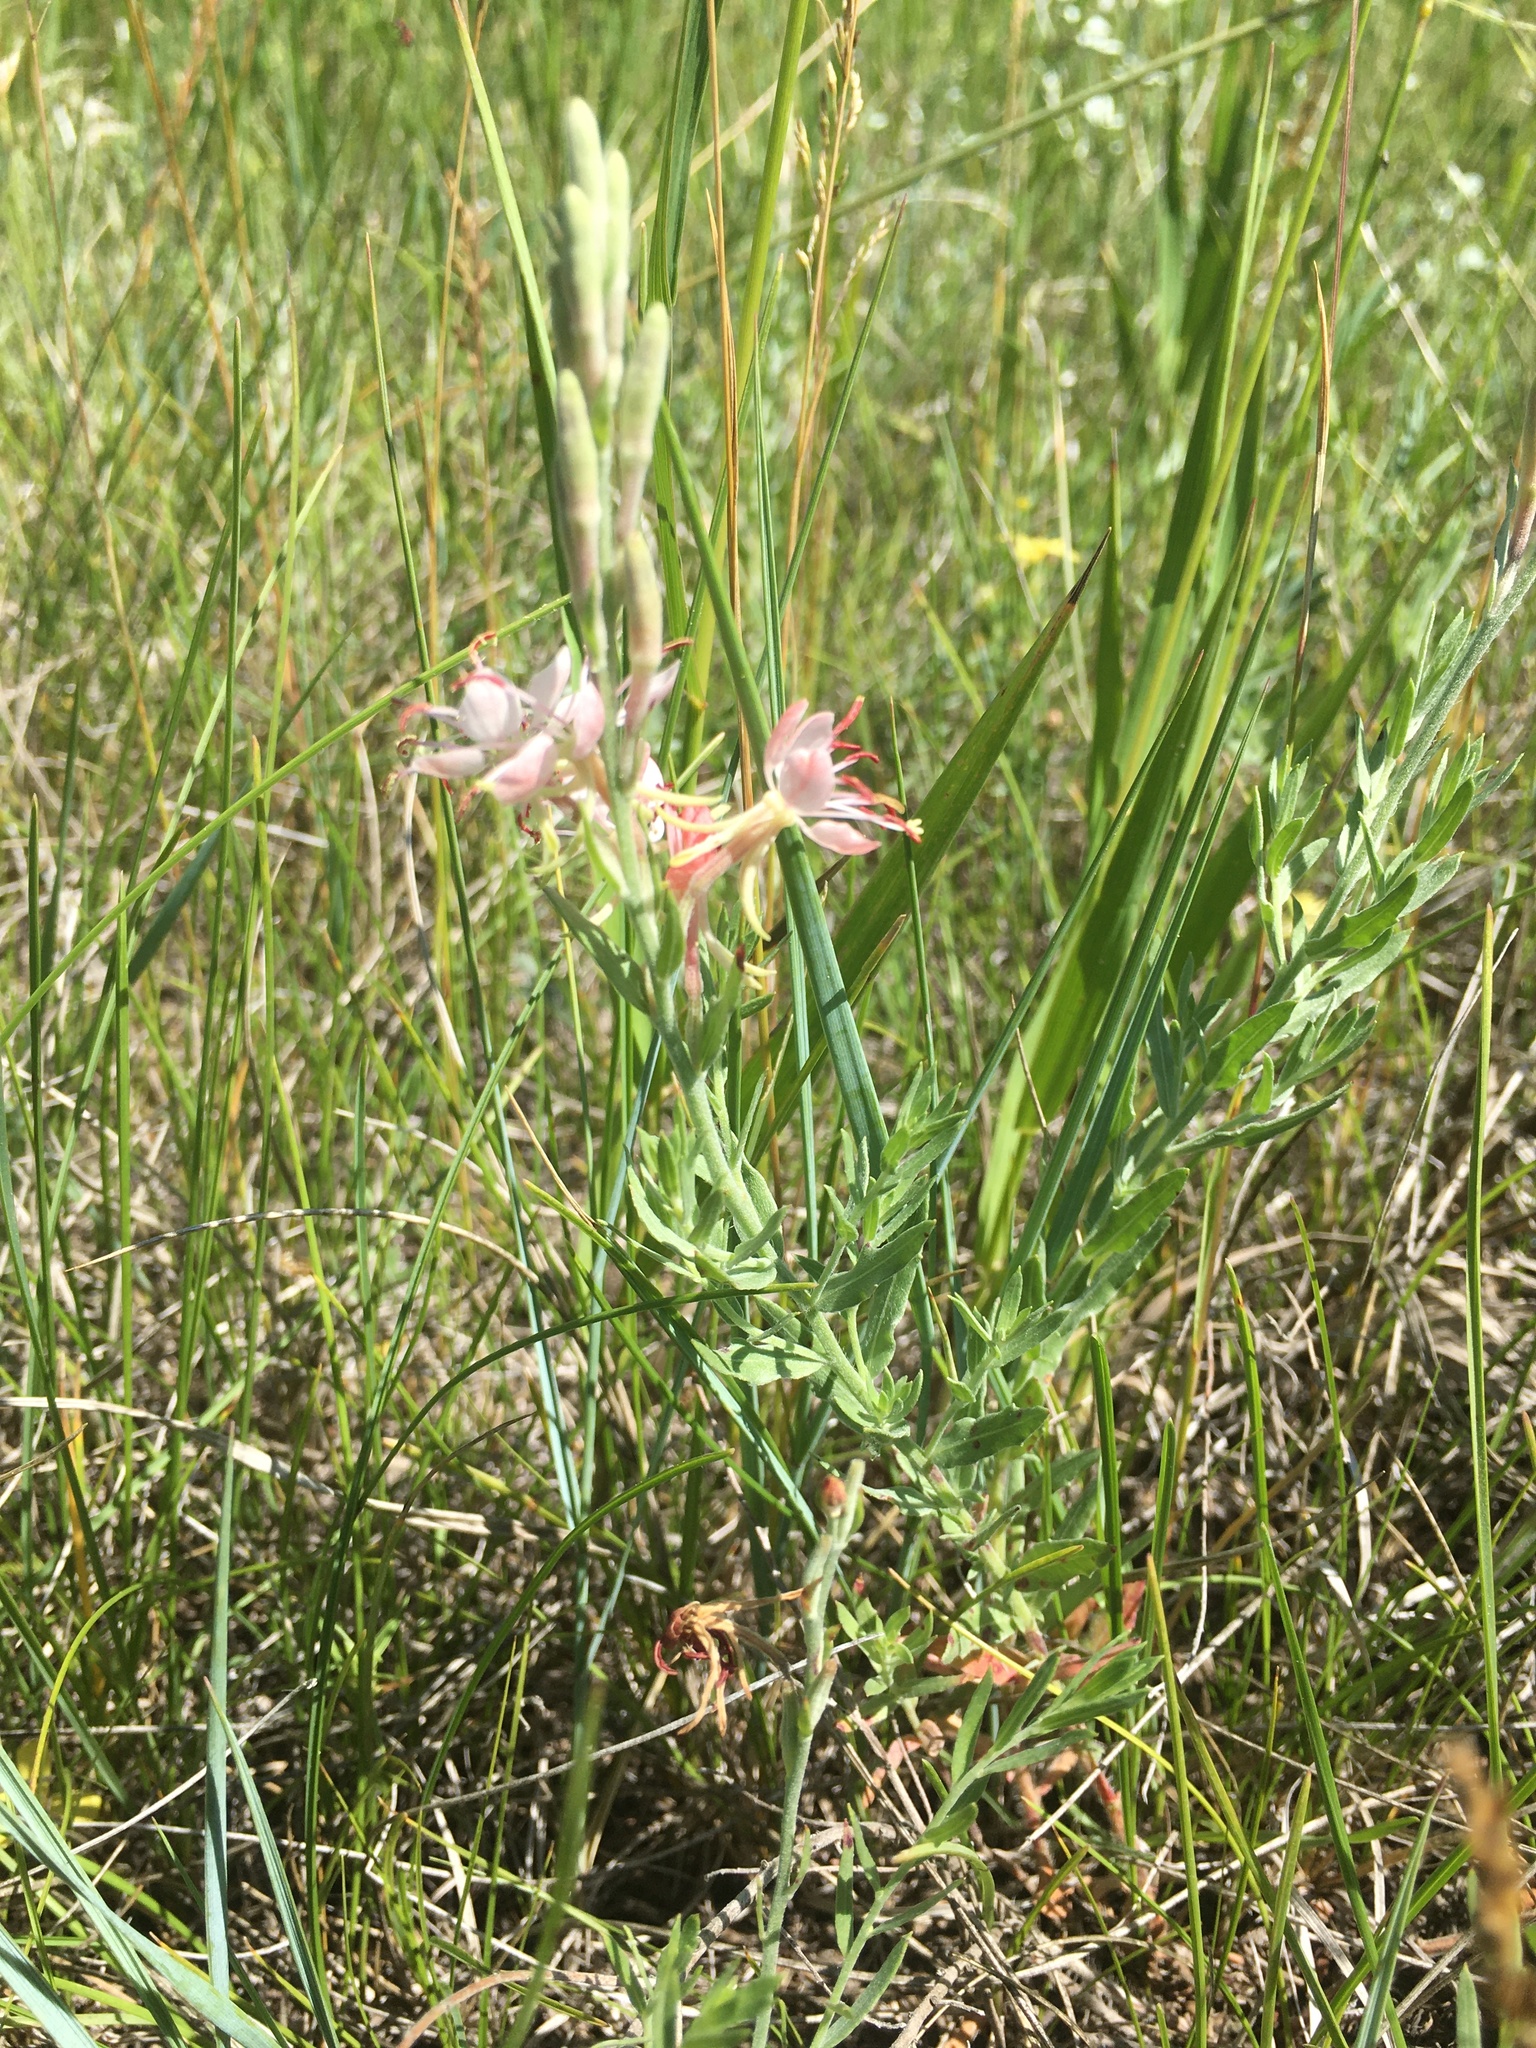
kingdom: Plantae
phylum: Tracheophyta
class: Magnoliopsida
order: Myrtales
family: Onagraceae
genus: Oenothera
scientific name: Oenothera suffrutescens
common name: Scarlet beeblossom
